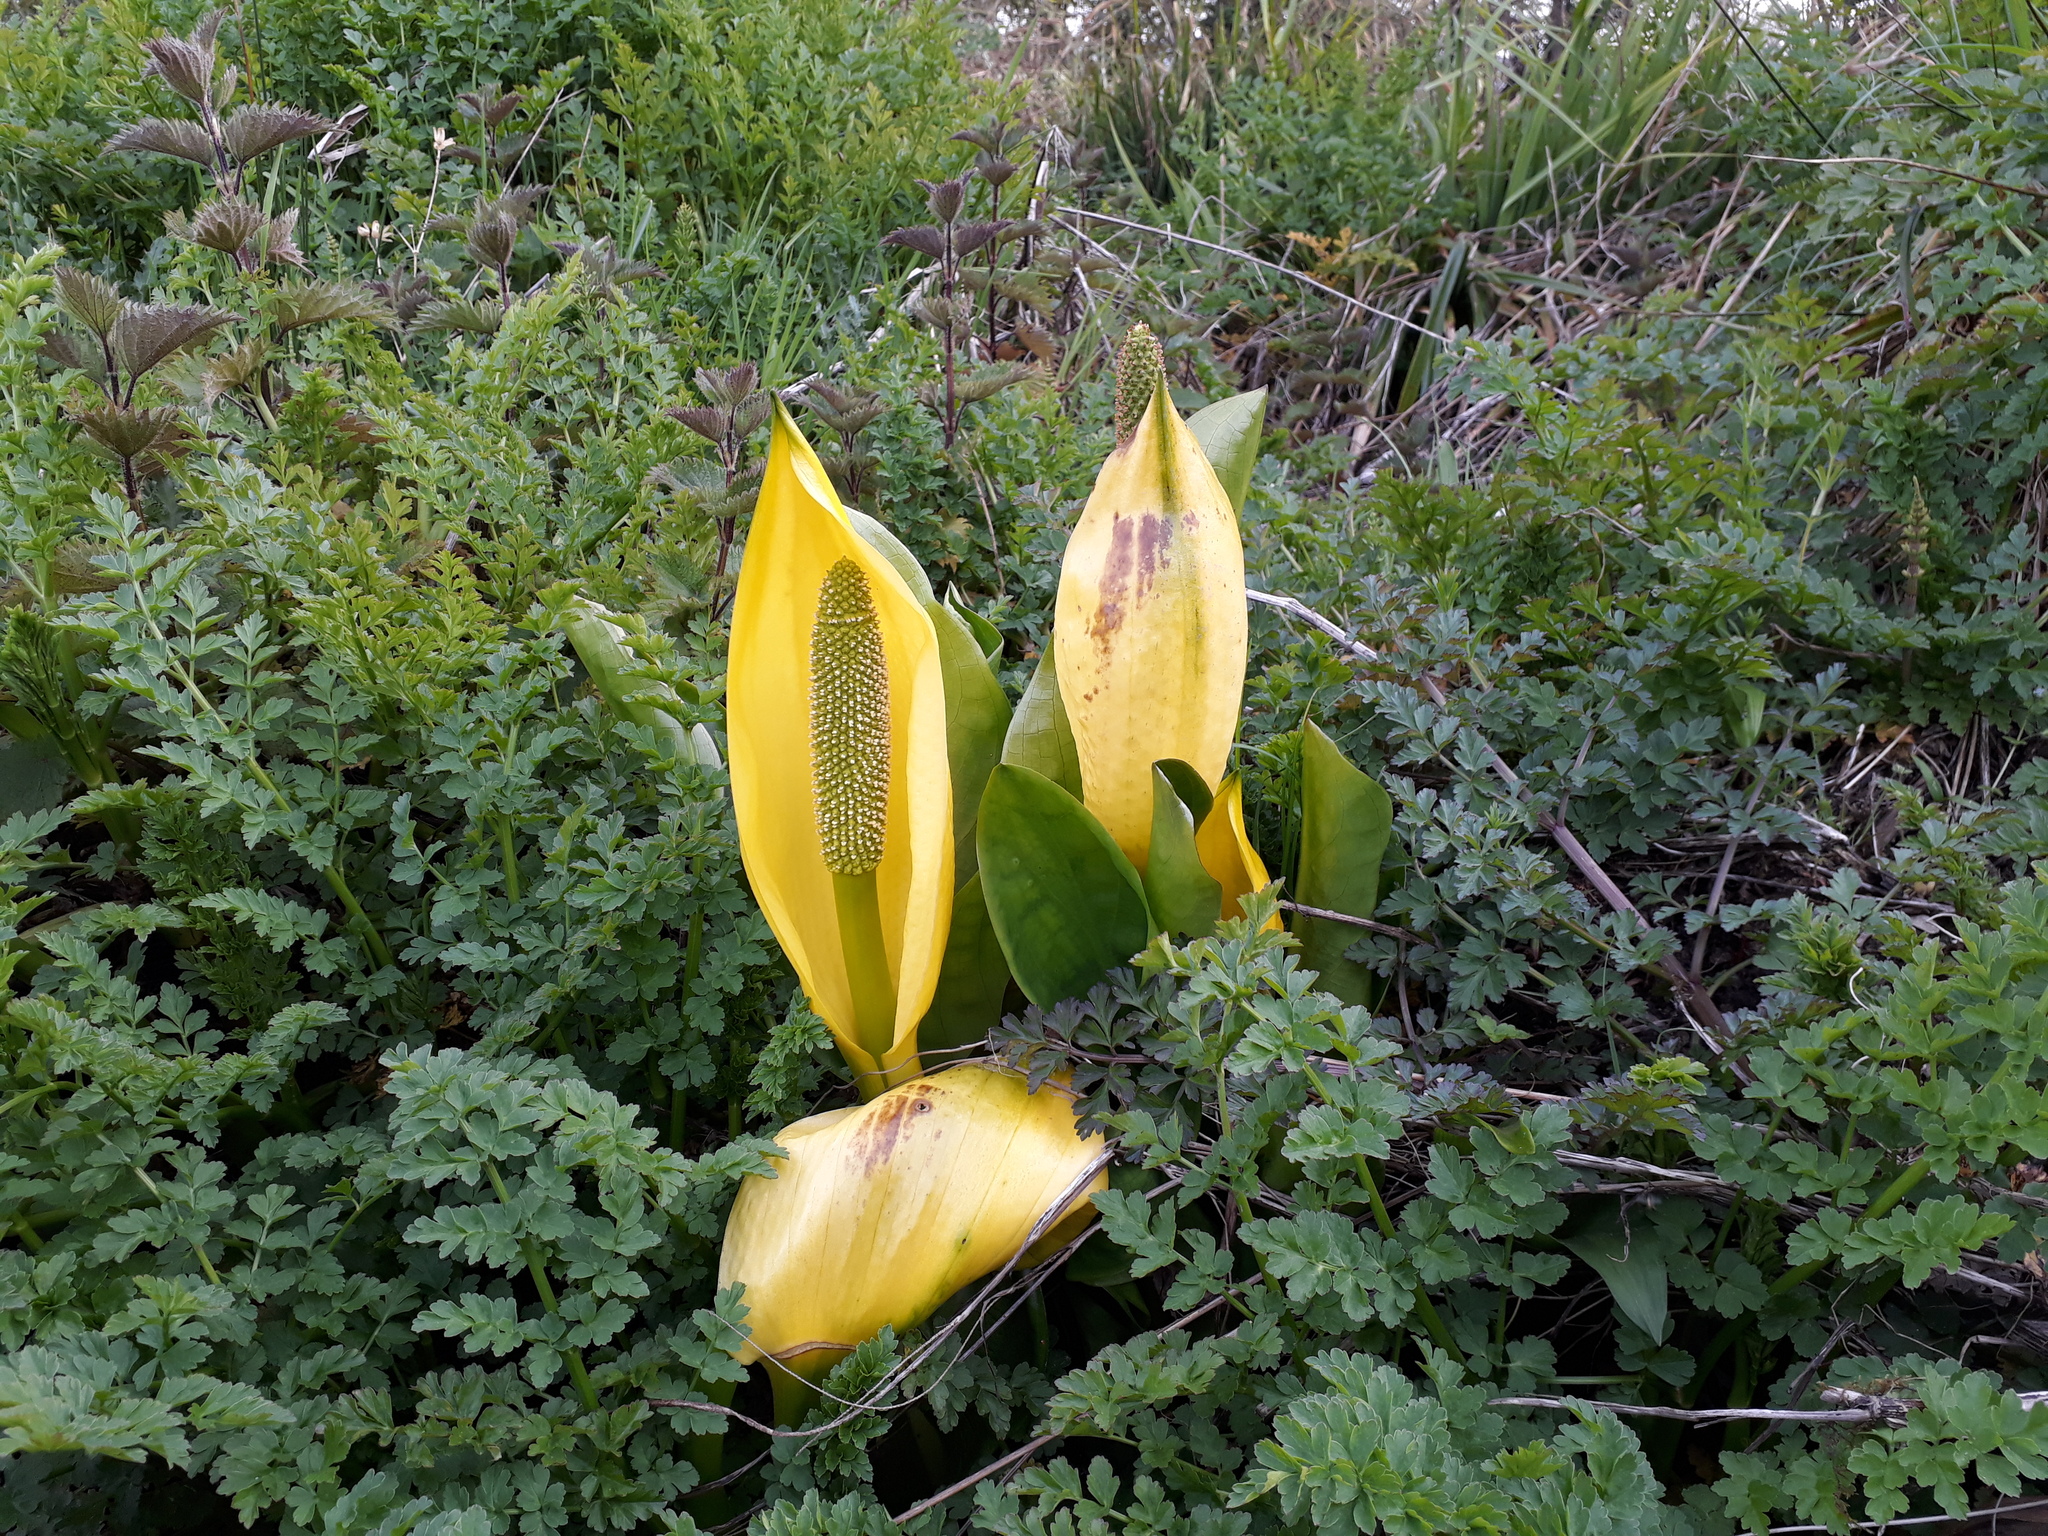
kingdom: Plantae
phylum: Tracheophyta
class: Liliopsida
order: Alismatales
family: Araceae
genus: Lysichiton
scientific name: Lysichiton americanus
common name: American skunk cabbage
